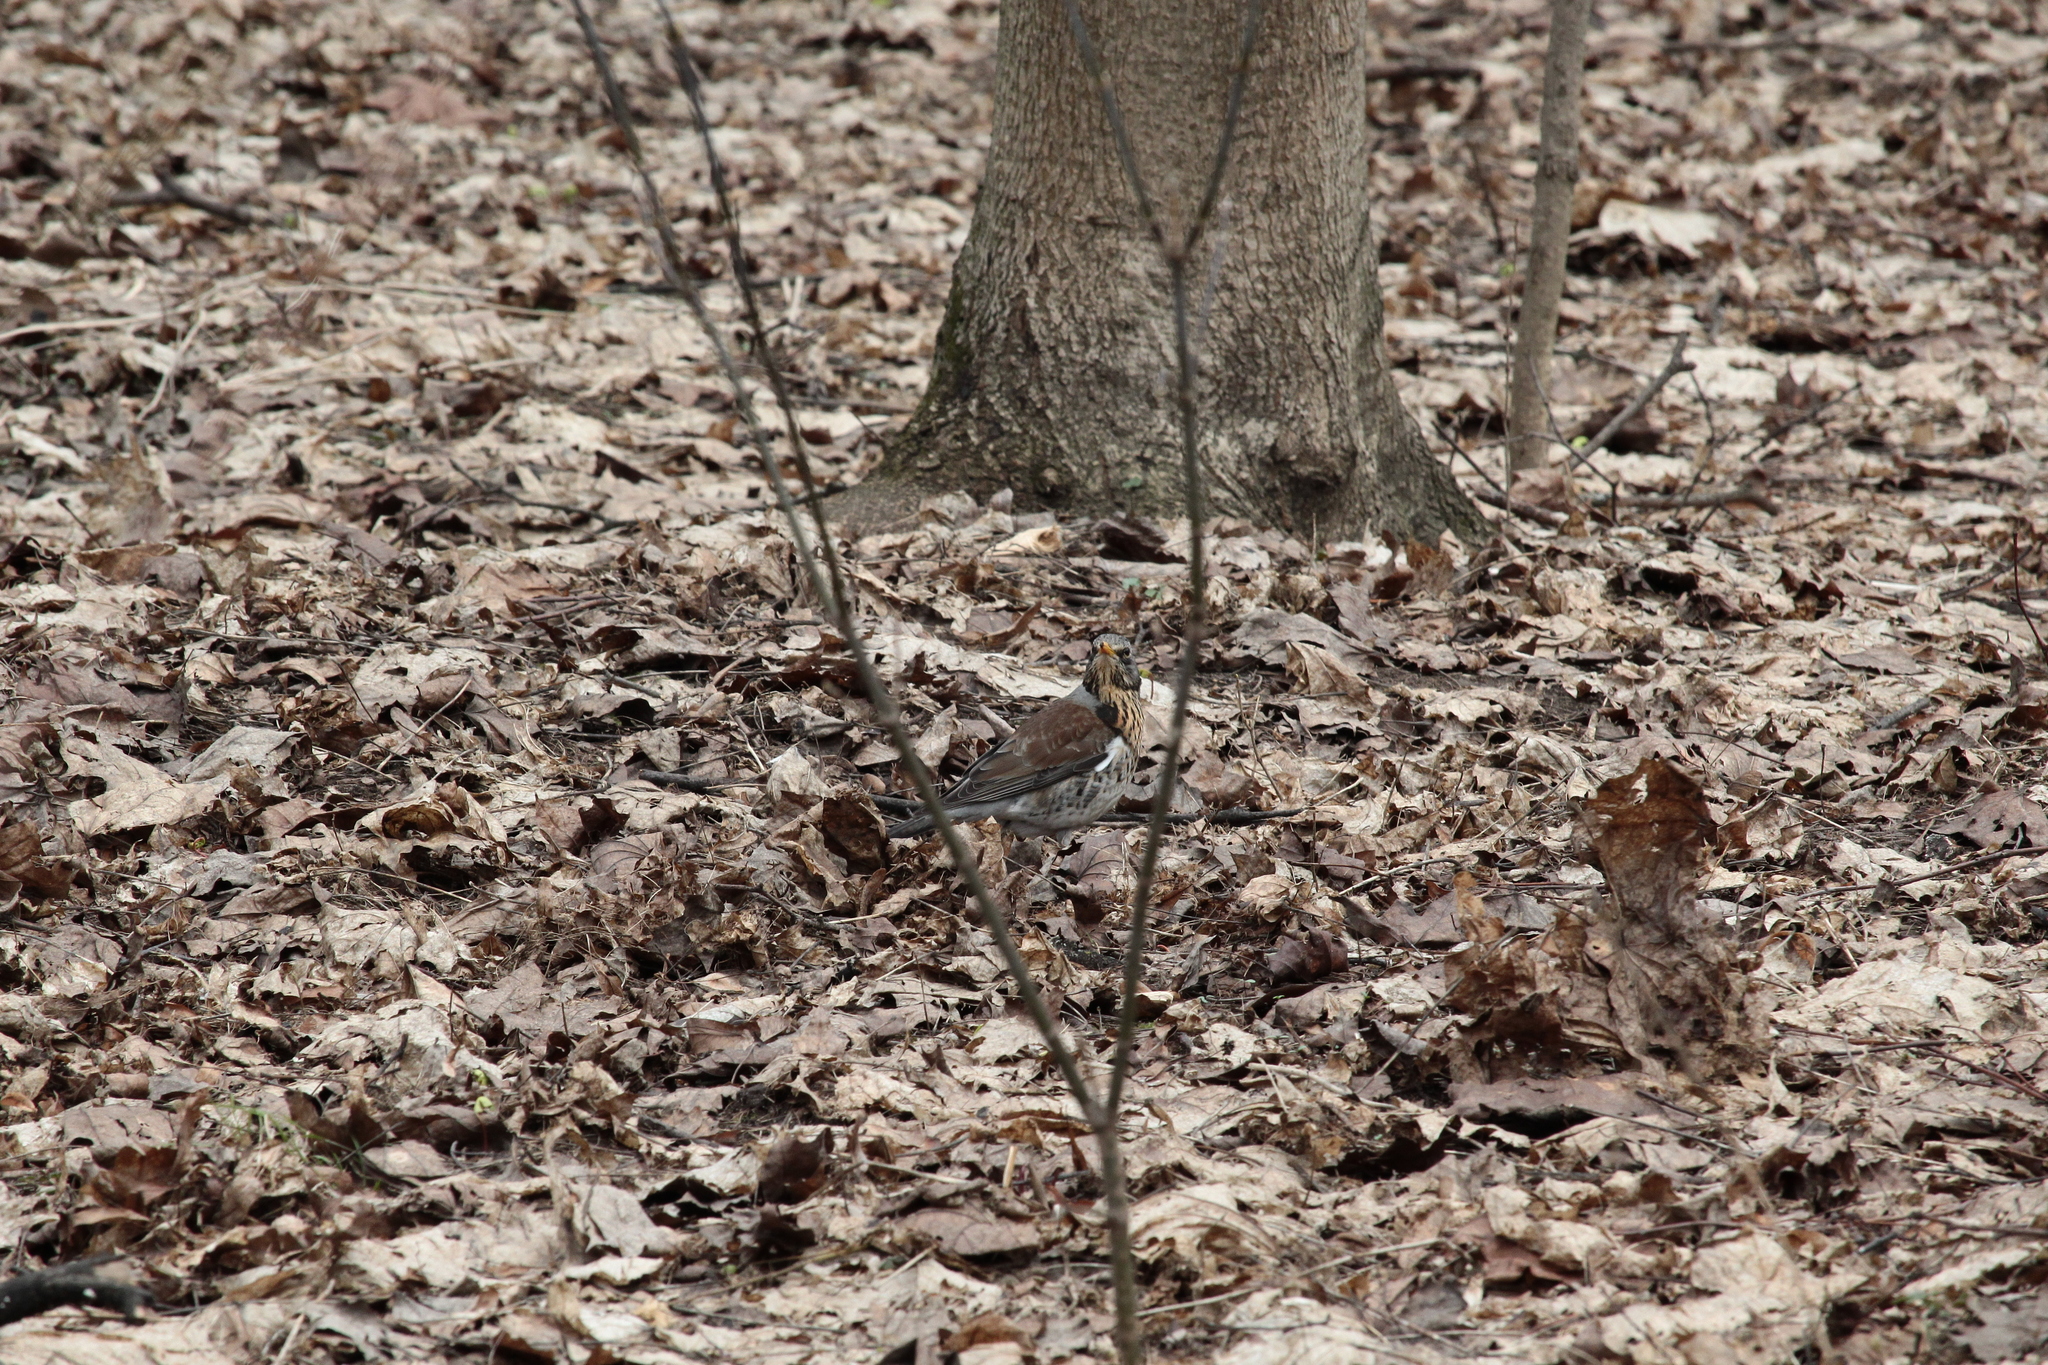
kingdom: Animalia
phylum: Chordata
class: Aves
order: Passeriformes
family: Turdidae
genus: Turdus
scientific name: Turdus pilaris
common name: Fieldfare
